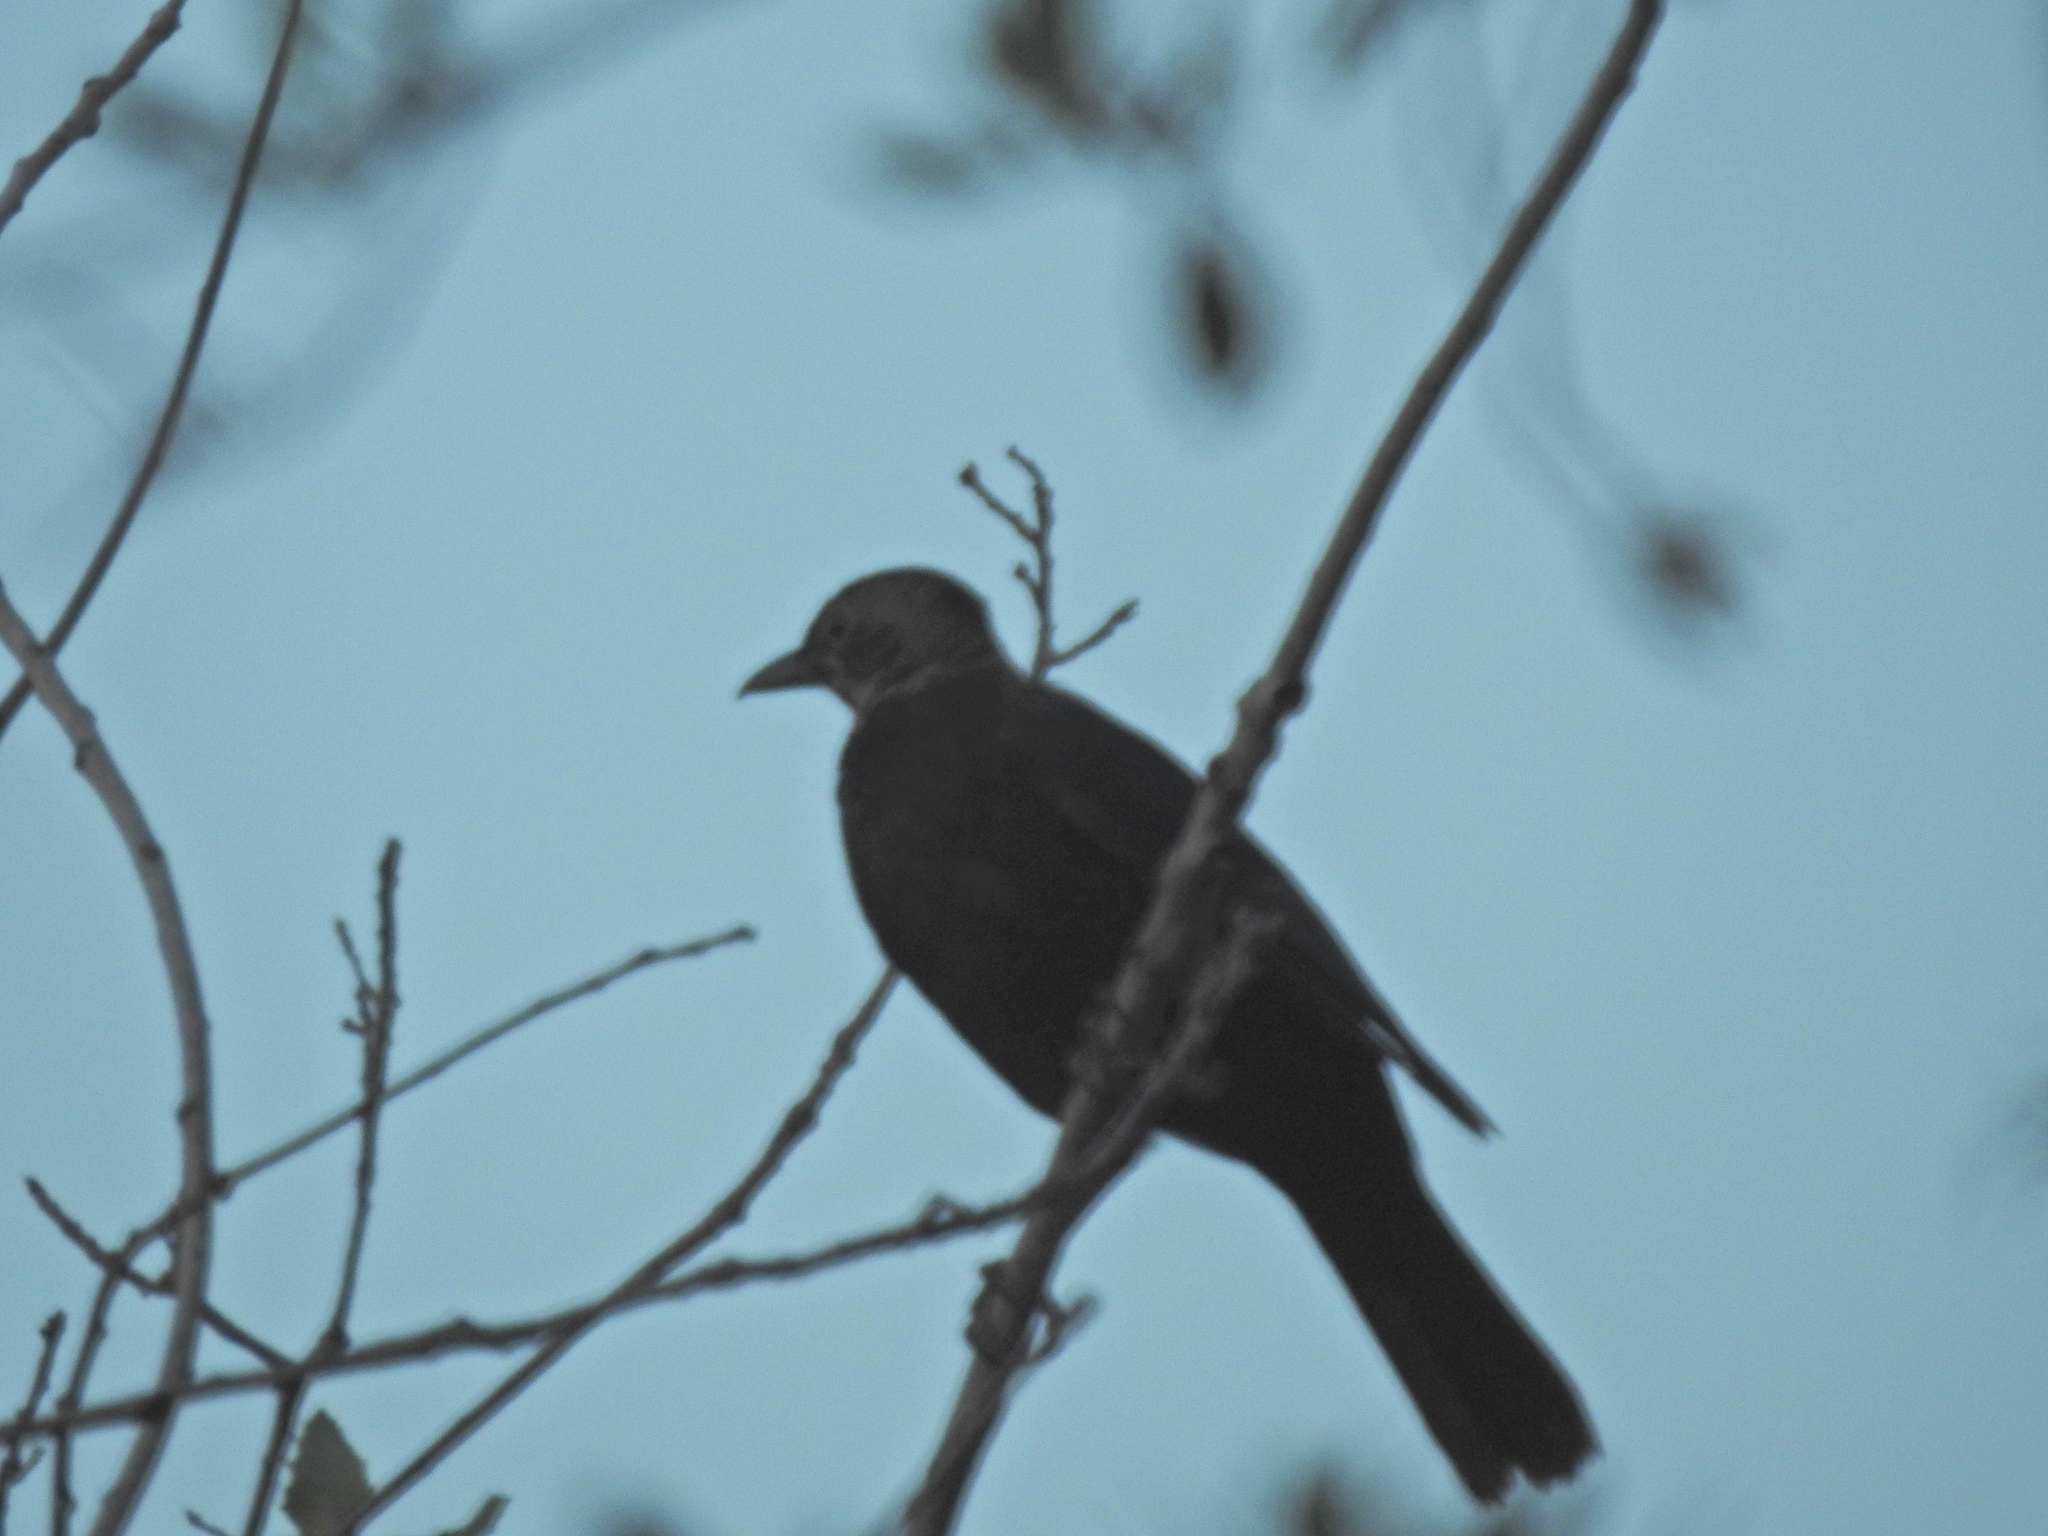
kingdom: Animalia
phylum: Chordata
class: Aves
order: Passeriformes
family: Turdidae
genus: Turdus
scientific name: Turdus merula
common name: Common blackbird
